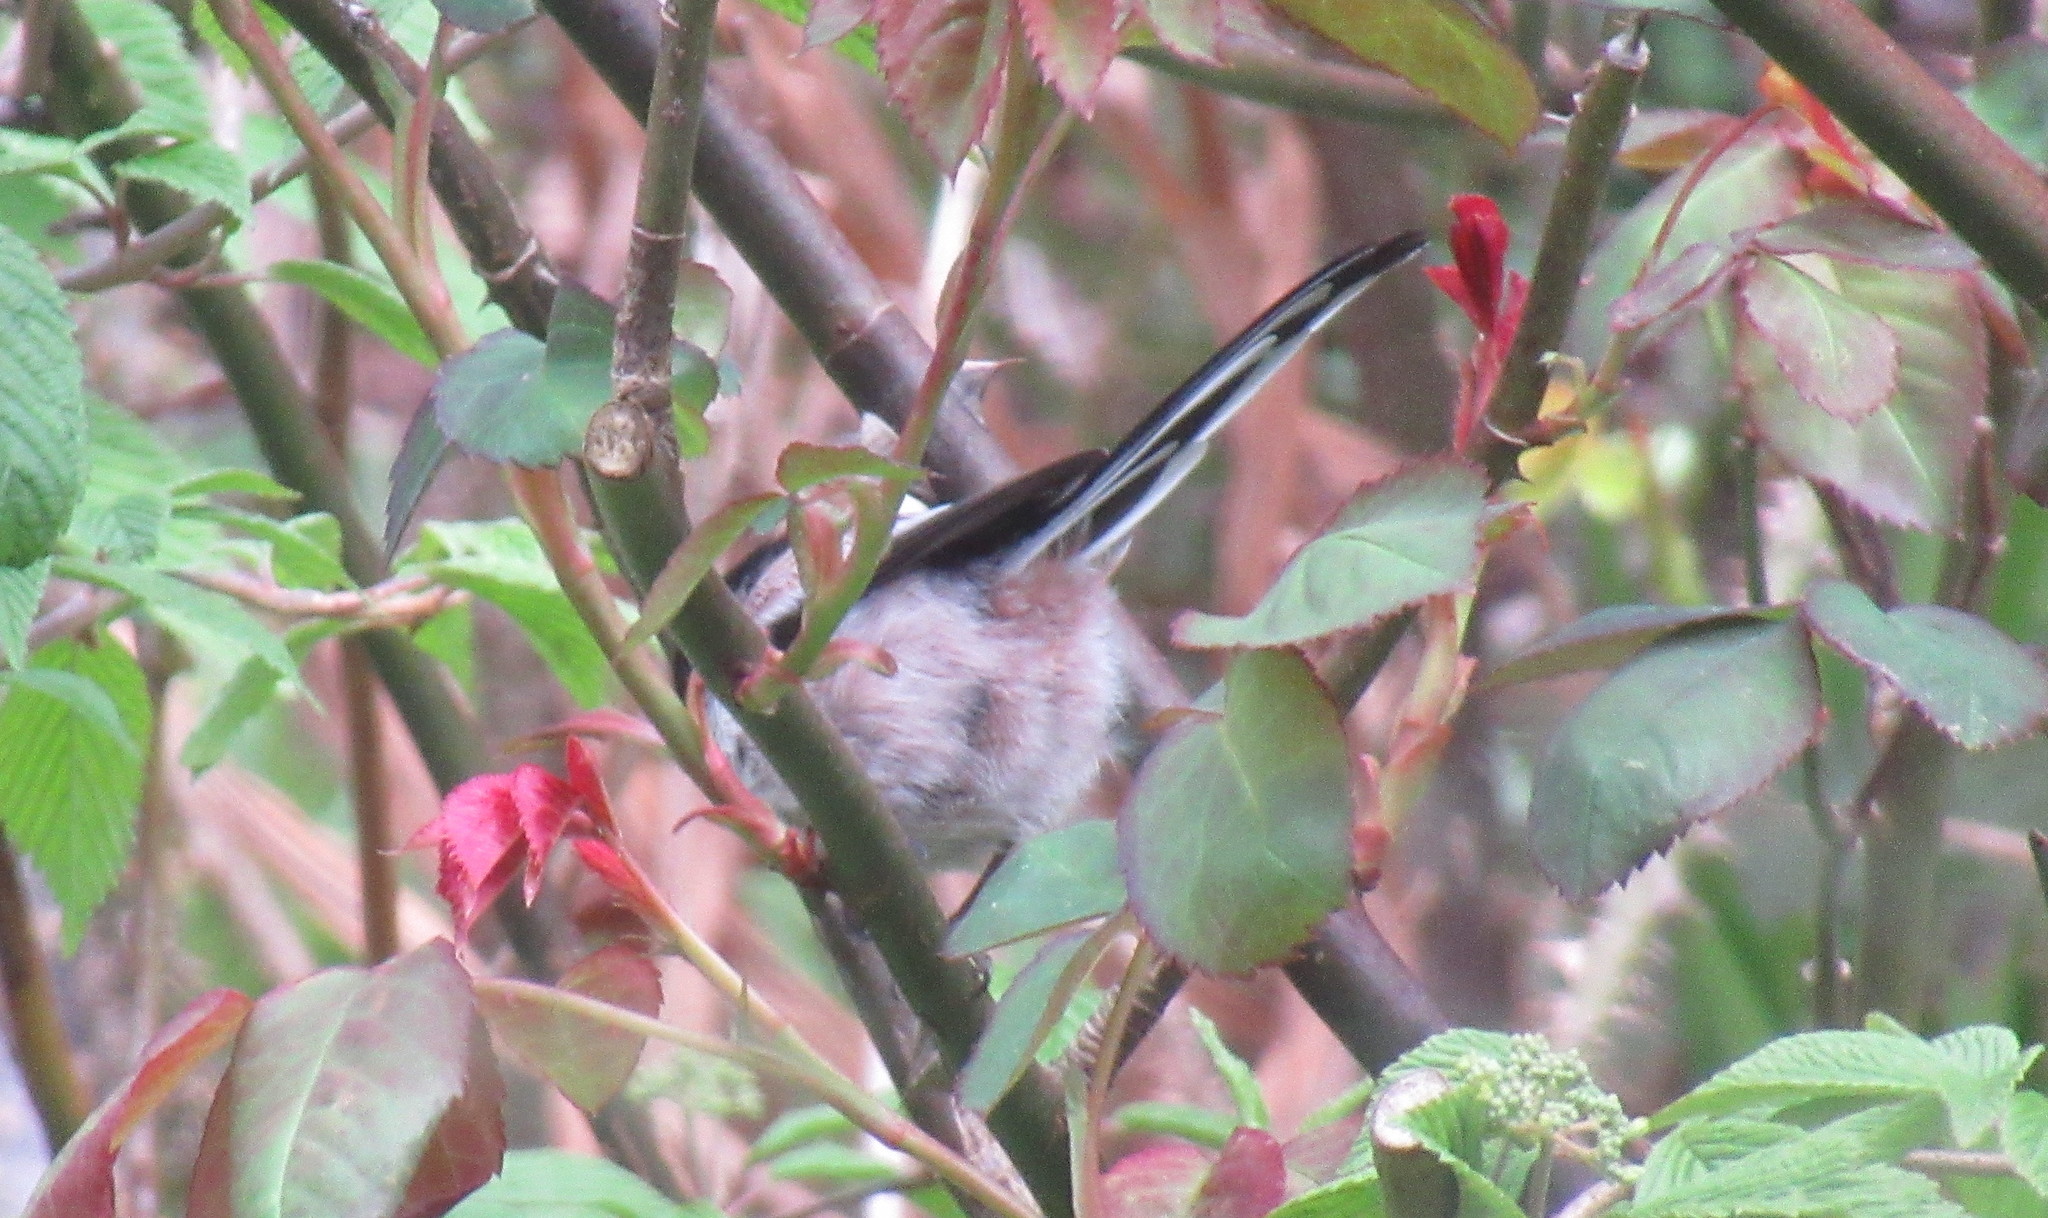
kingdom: Animalia
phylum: Chordata
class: Aves
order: Passeriformes
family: Aegithalidae
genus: Aegithalos
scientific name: Aegithalos caudatus
